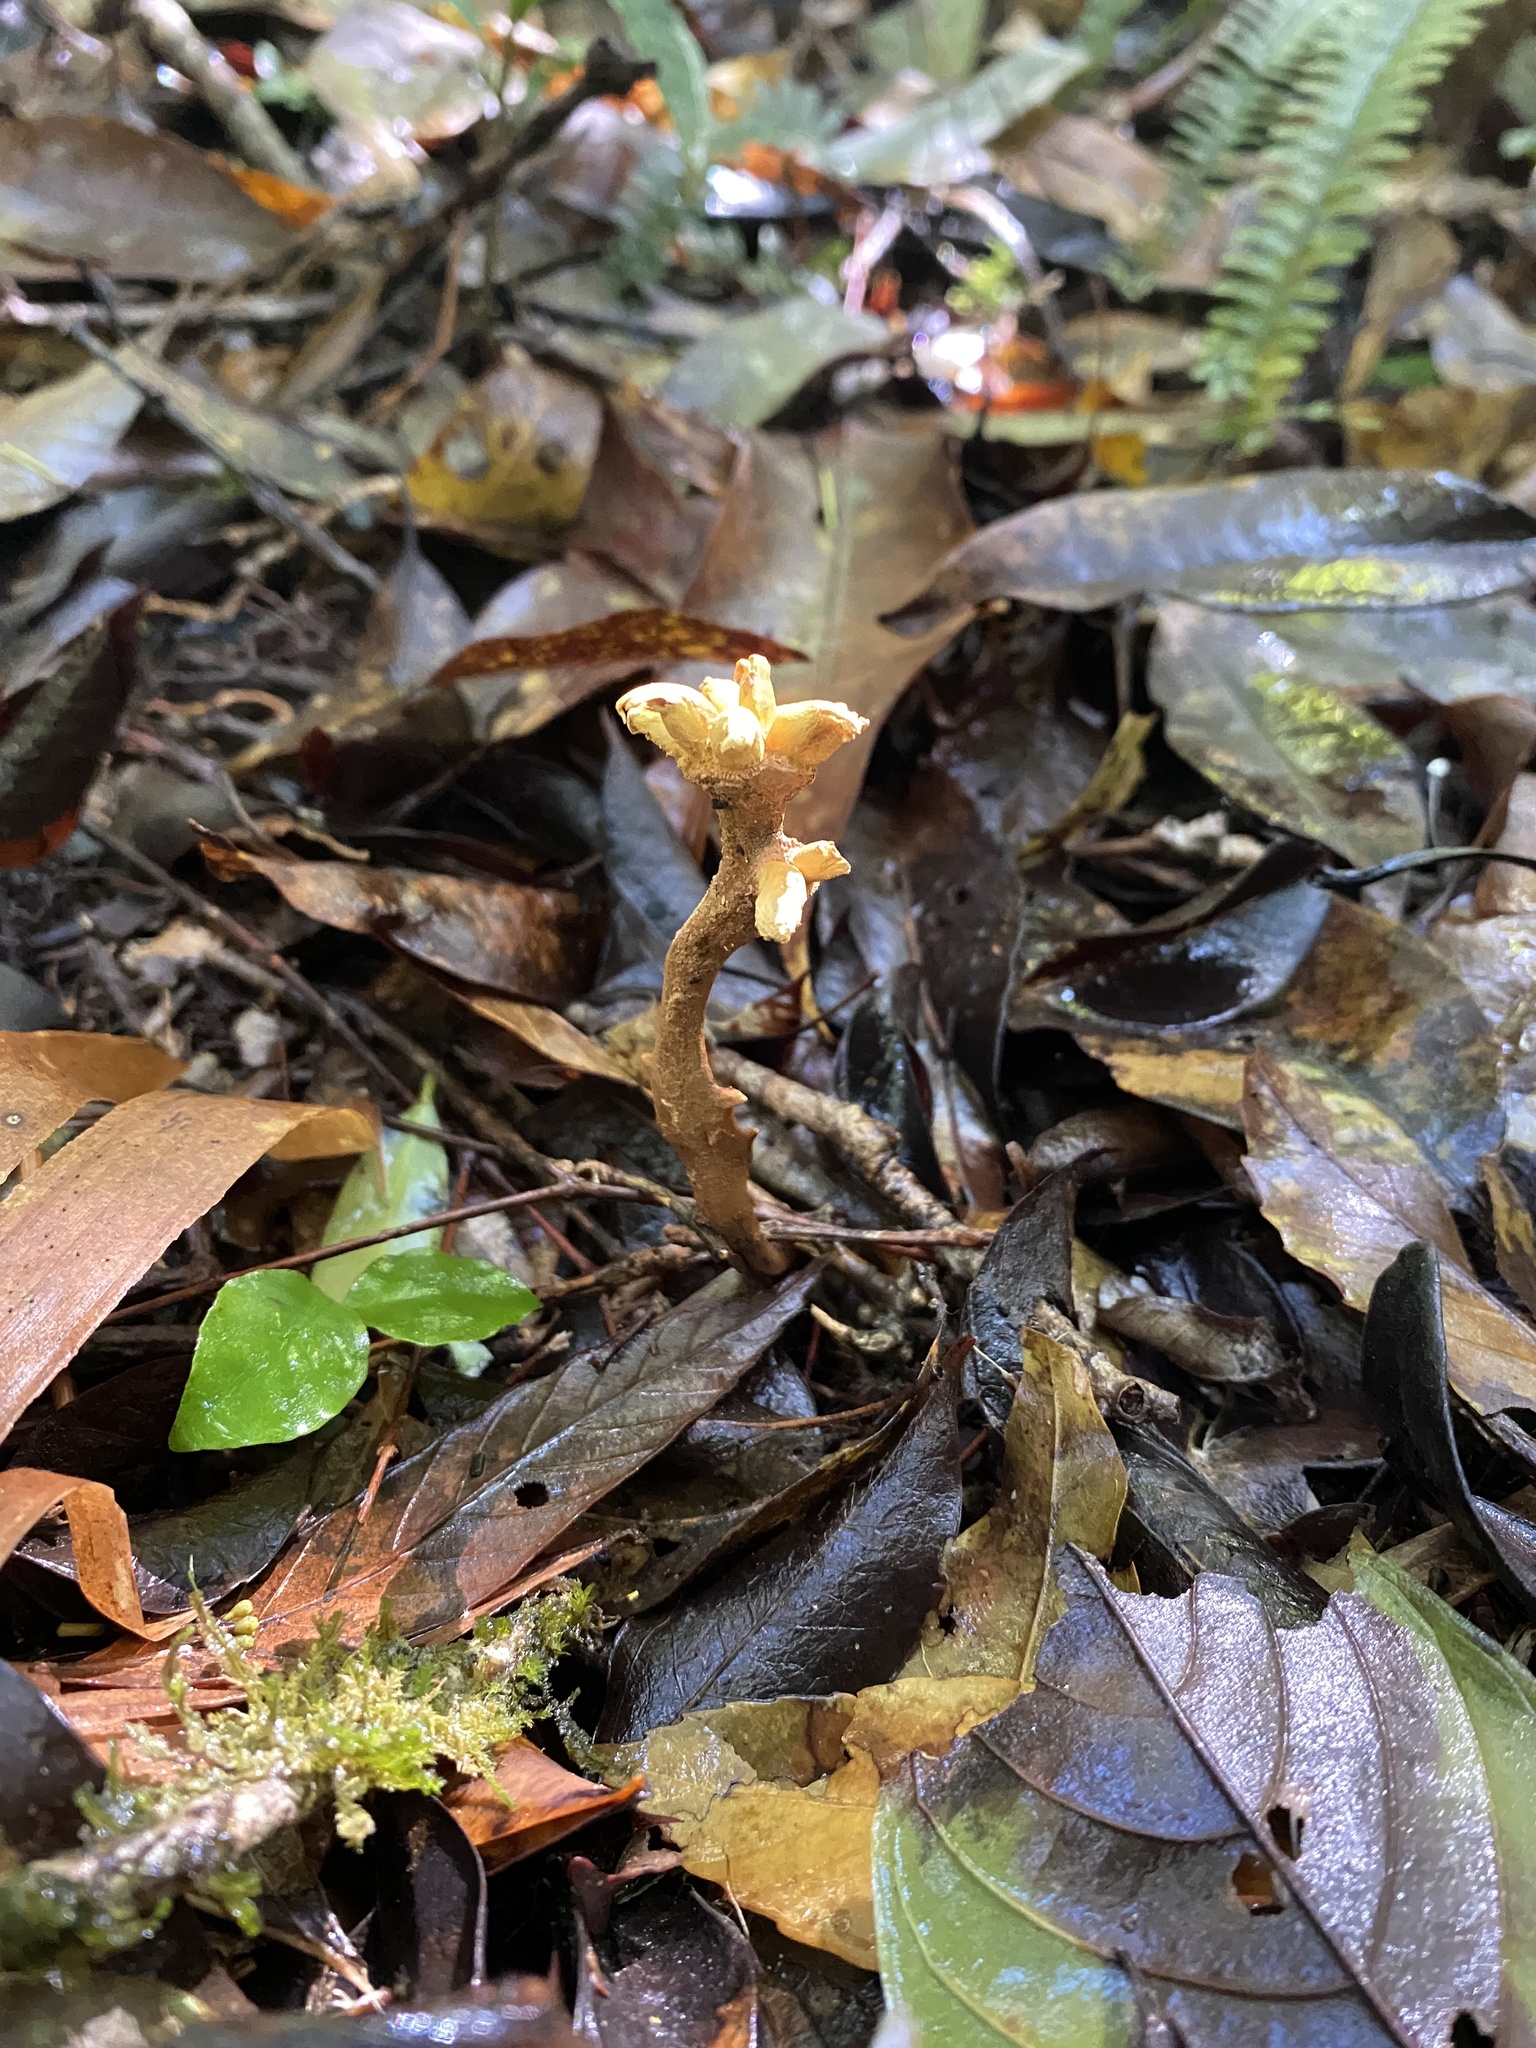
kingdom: Fungi
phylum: Ascomycota
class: Eurotiomycetes
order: Eurotiales
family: Aspergillaceae
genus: Dendrosphaera
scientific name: Dendrosphaera eberhardtii
